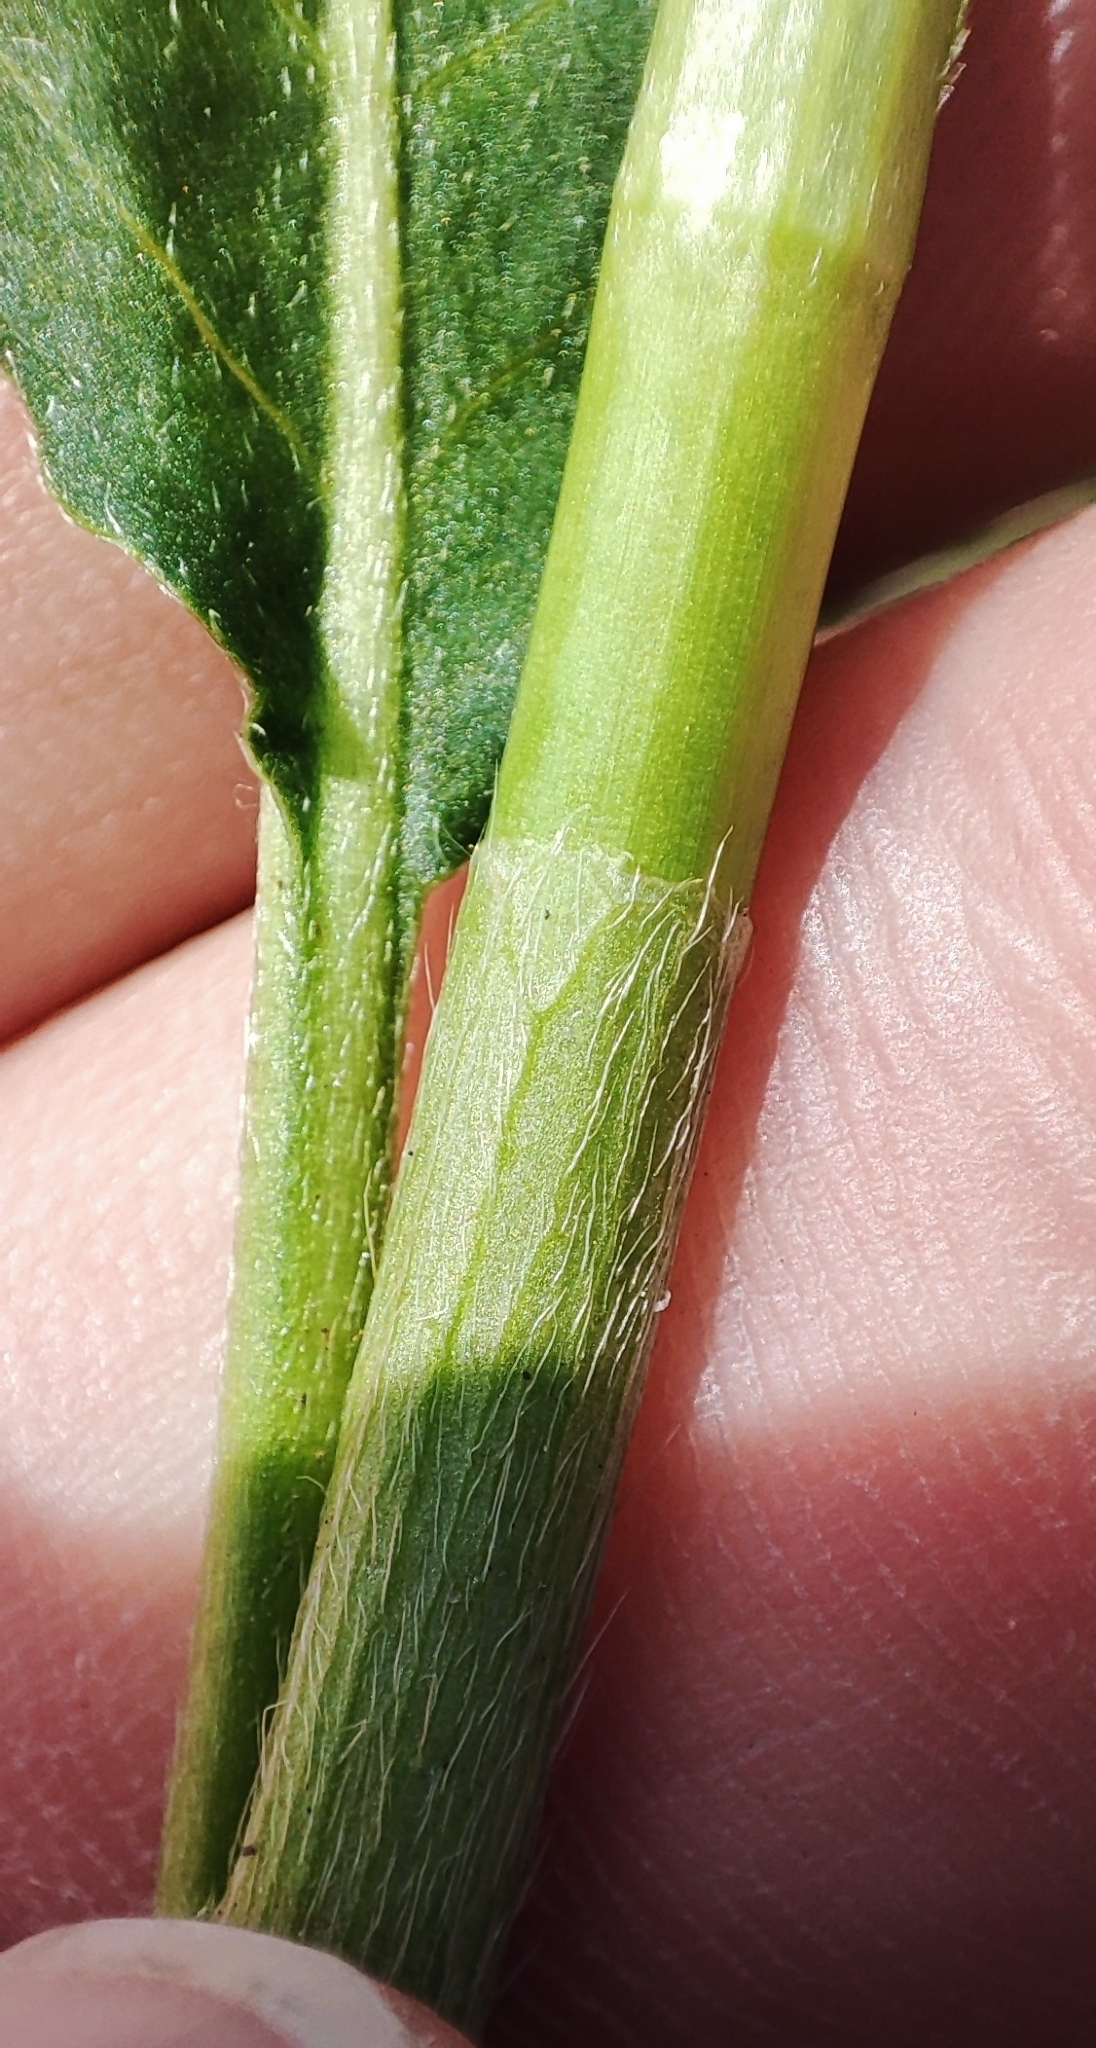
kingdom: Plantae
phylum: Tracheophyta
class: Magnoliopsida
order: Caryophyllales
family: Polygonaceae
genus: Persicaria
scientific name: Persicaria amphibia
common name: Amphibious bistort
